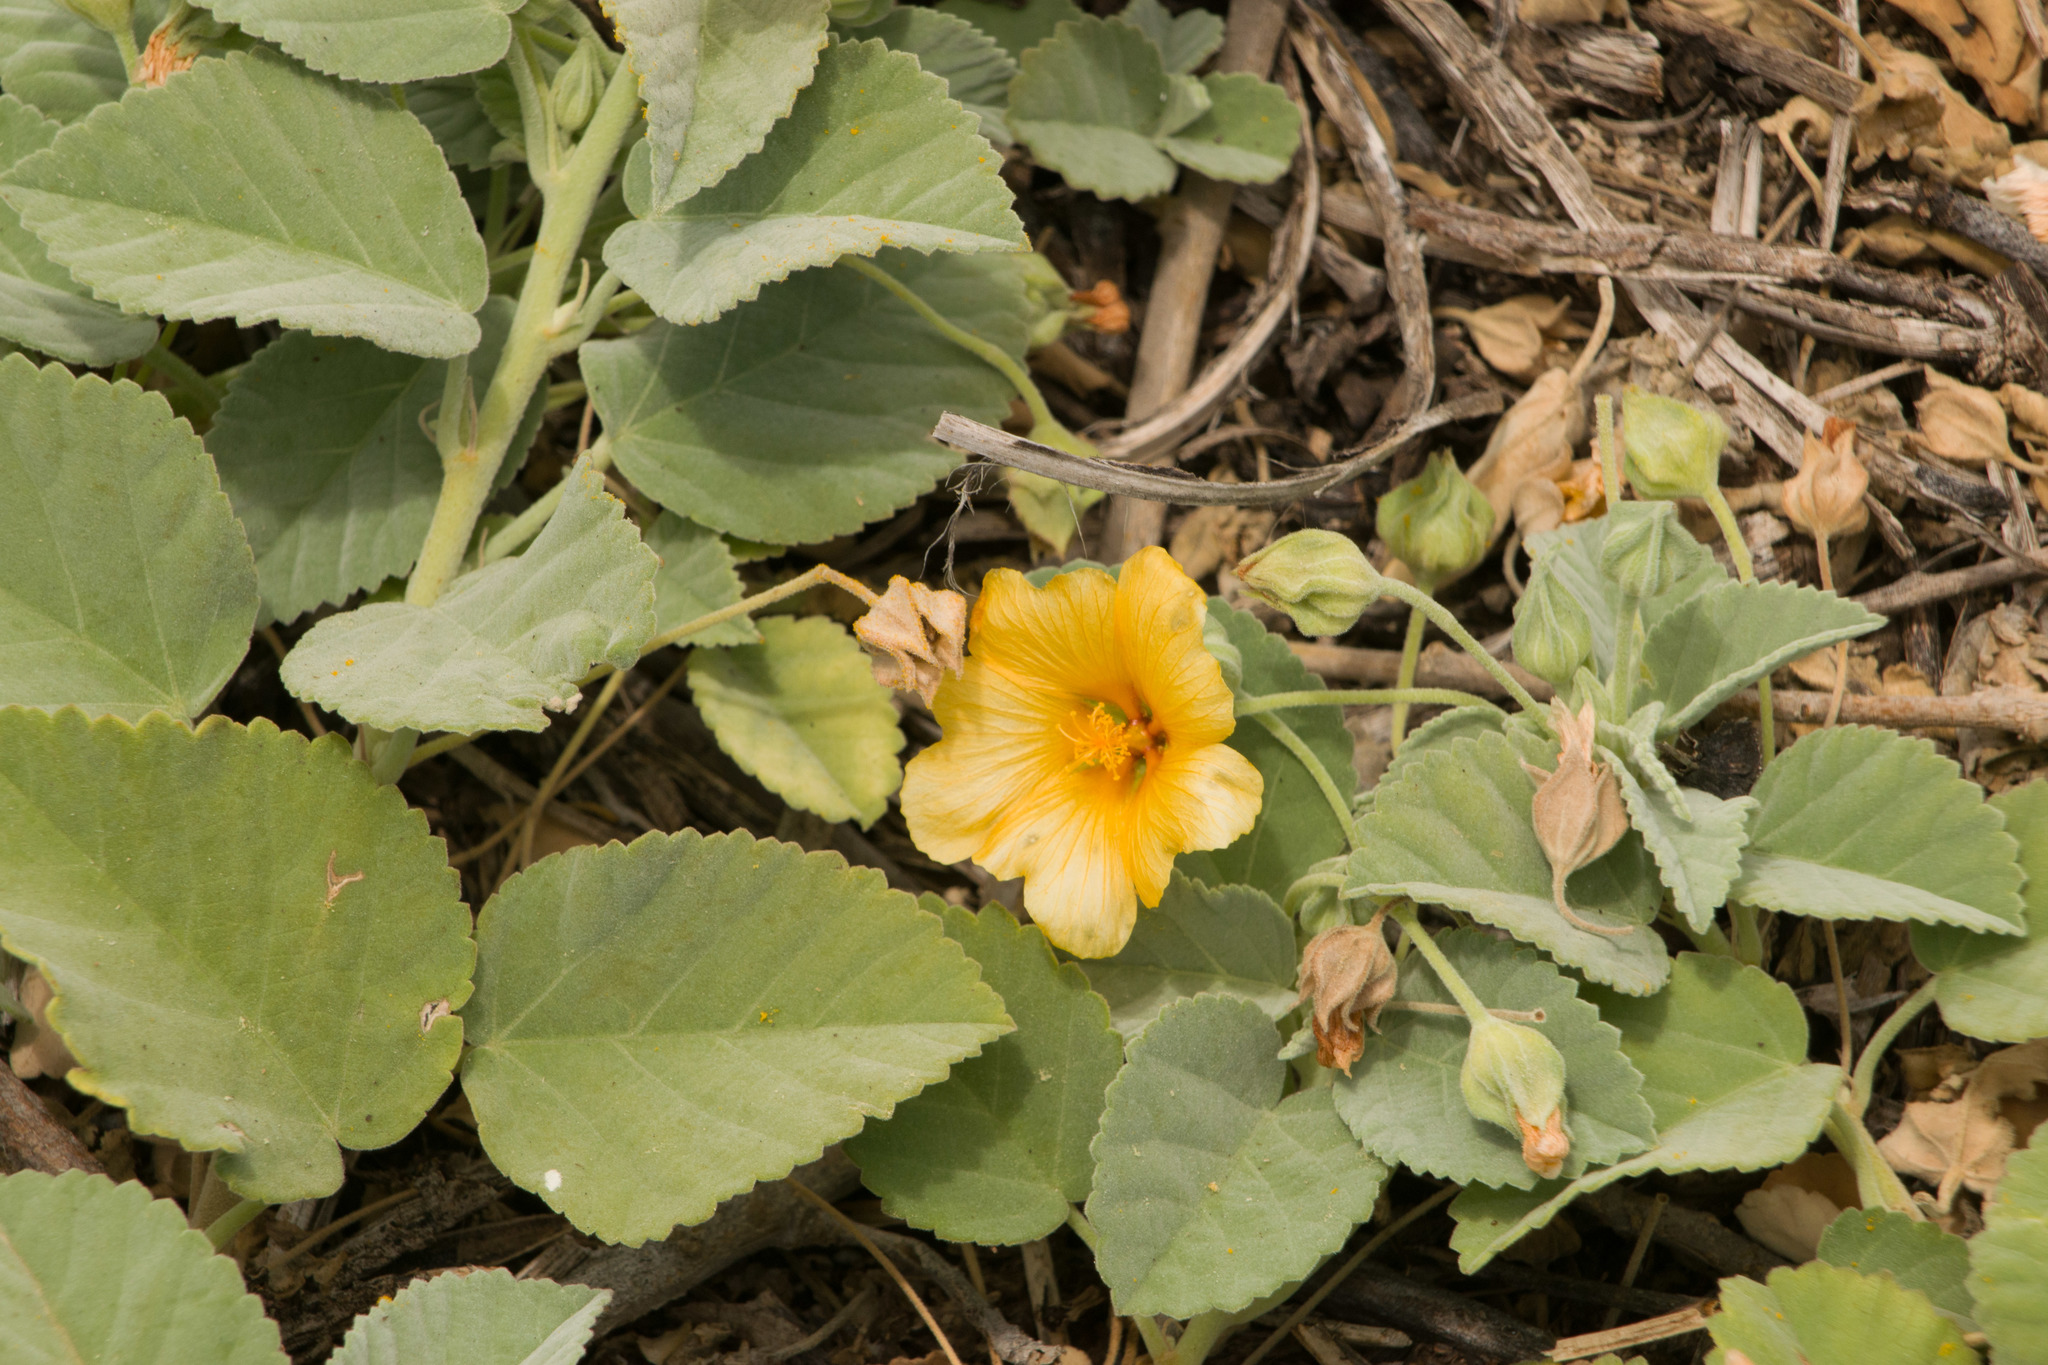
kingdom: Plantae
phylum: Tracheophyta
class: Magnoliopsida
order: Malvales
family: Malvaceae
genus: Sida
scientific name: Sida fallax
